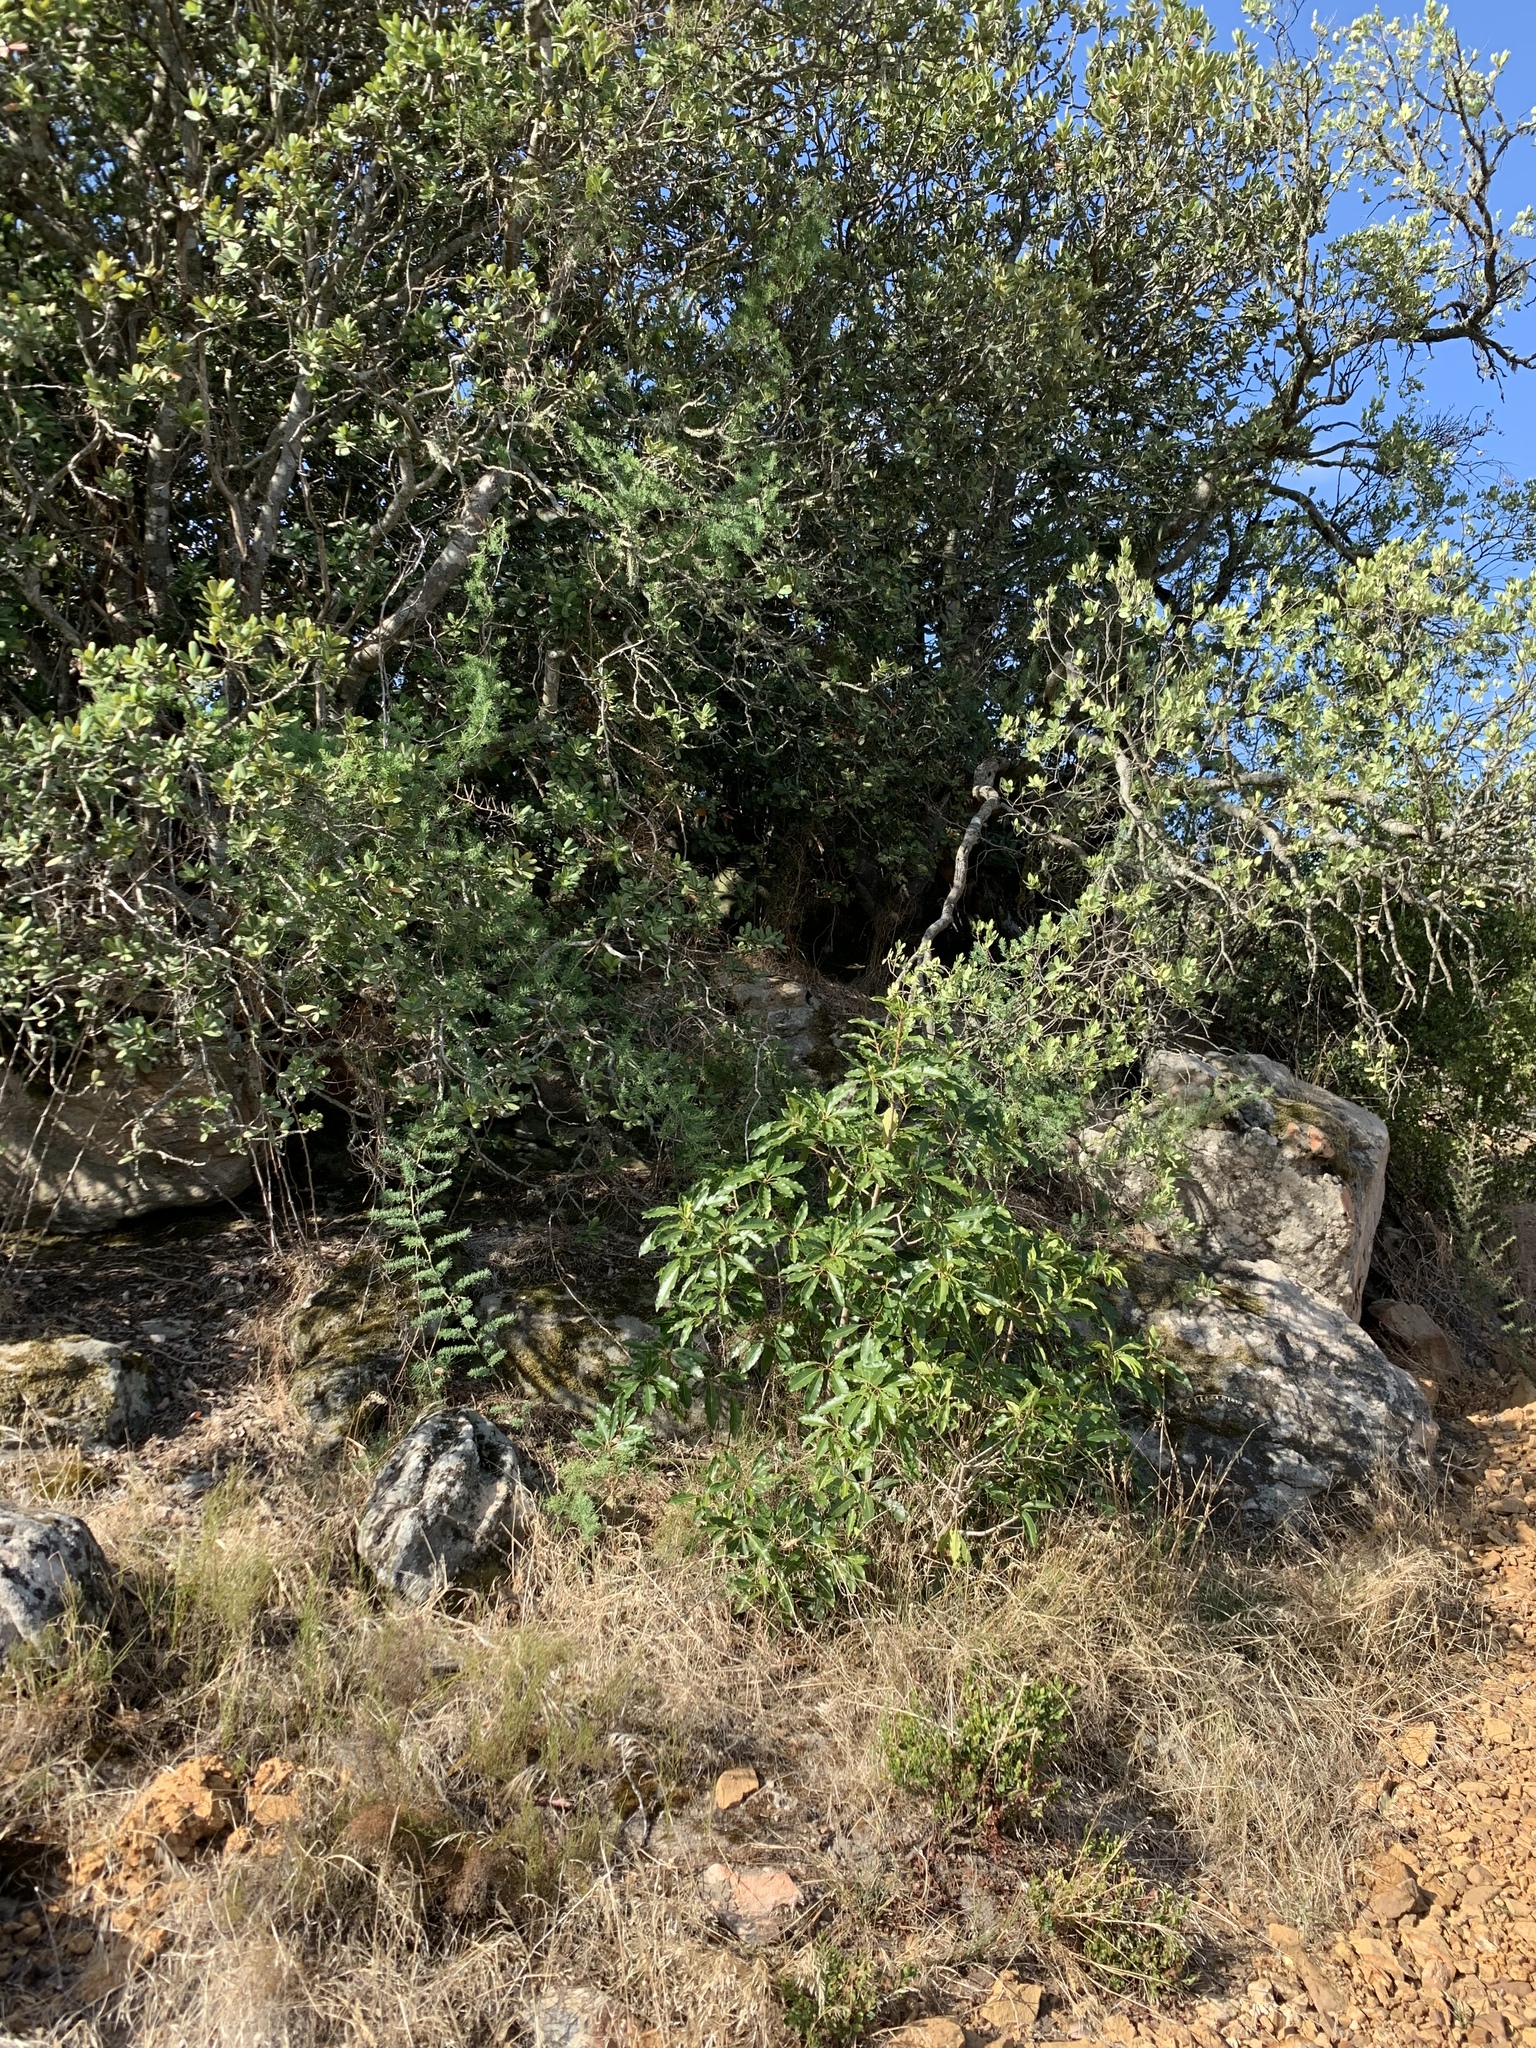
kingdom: Plantae
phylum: Tracheophyta
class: Magnoliopsida
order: Apiales
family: Pittosporaceae
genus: Pittosporum
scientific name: Pittosporum undulatum
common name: Australian cheesewood
